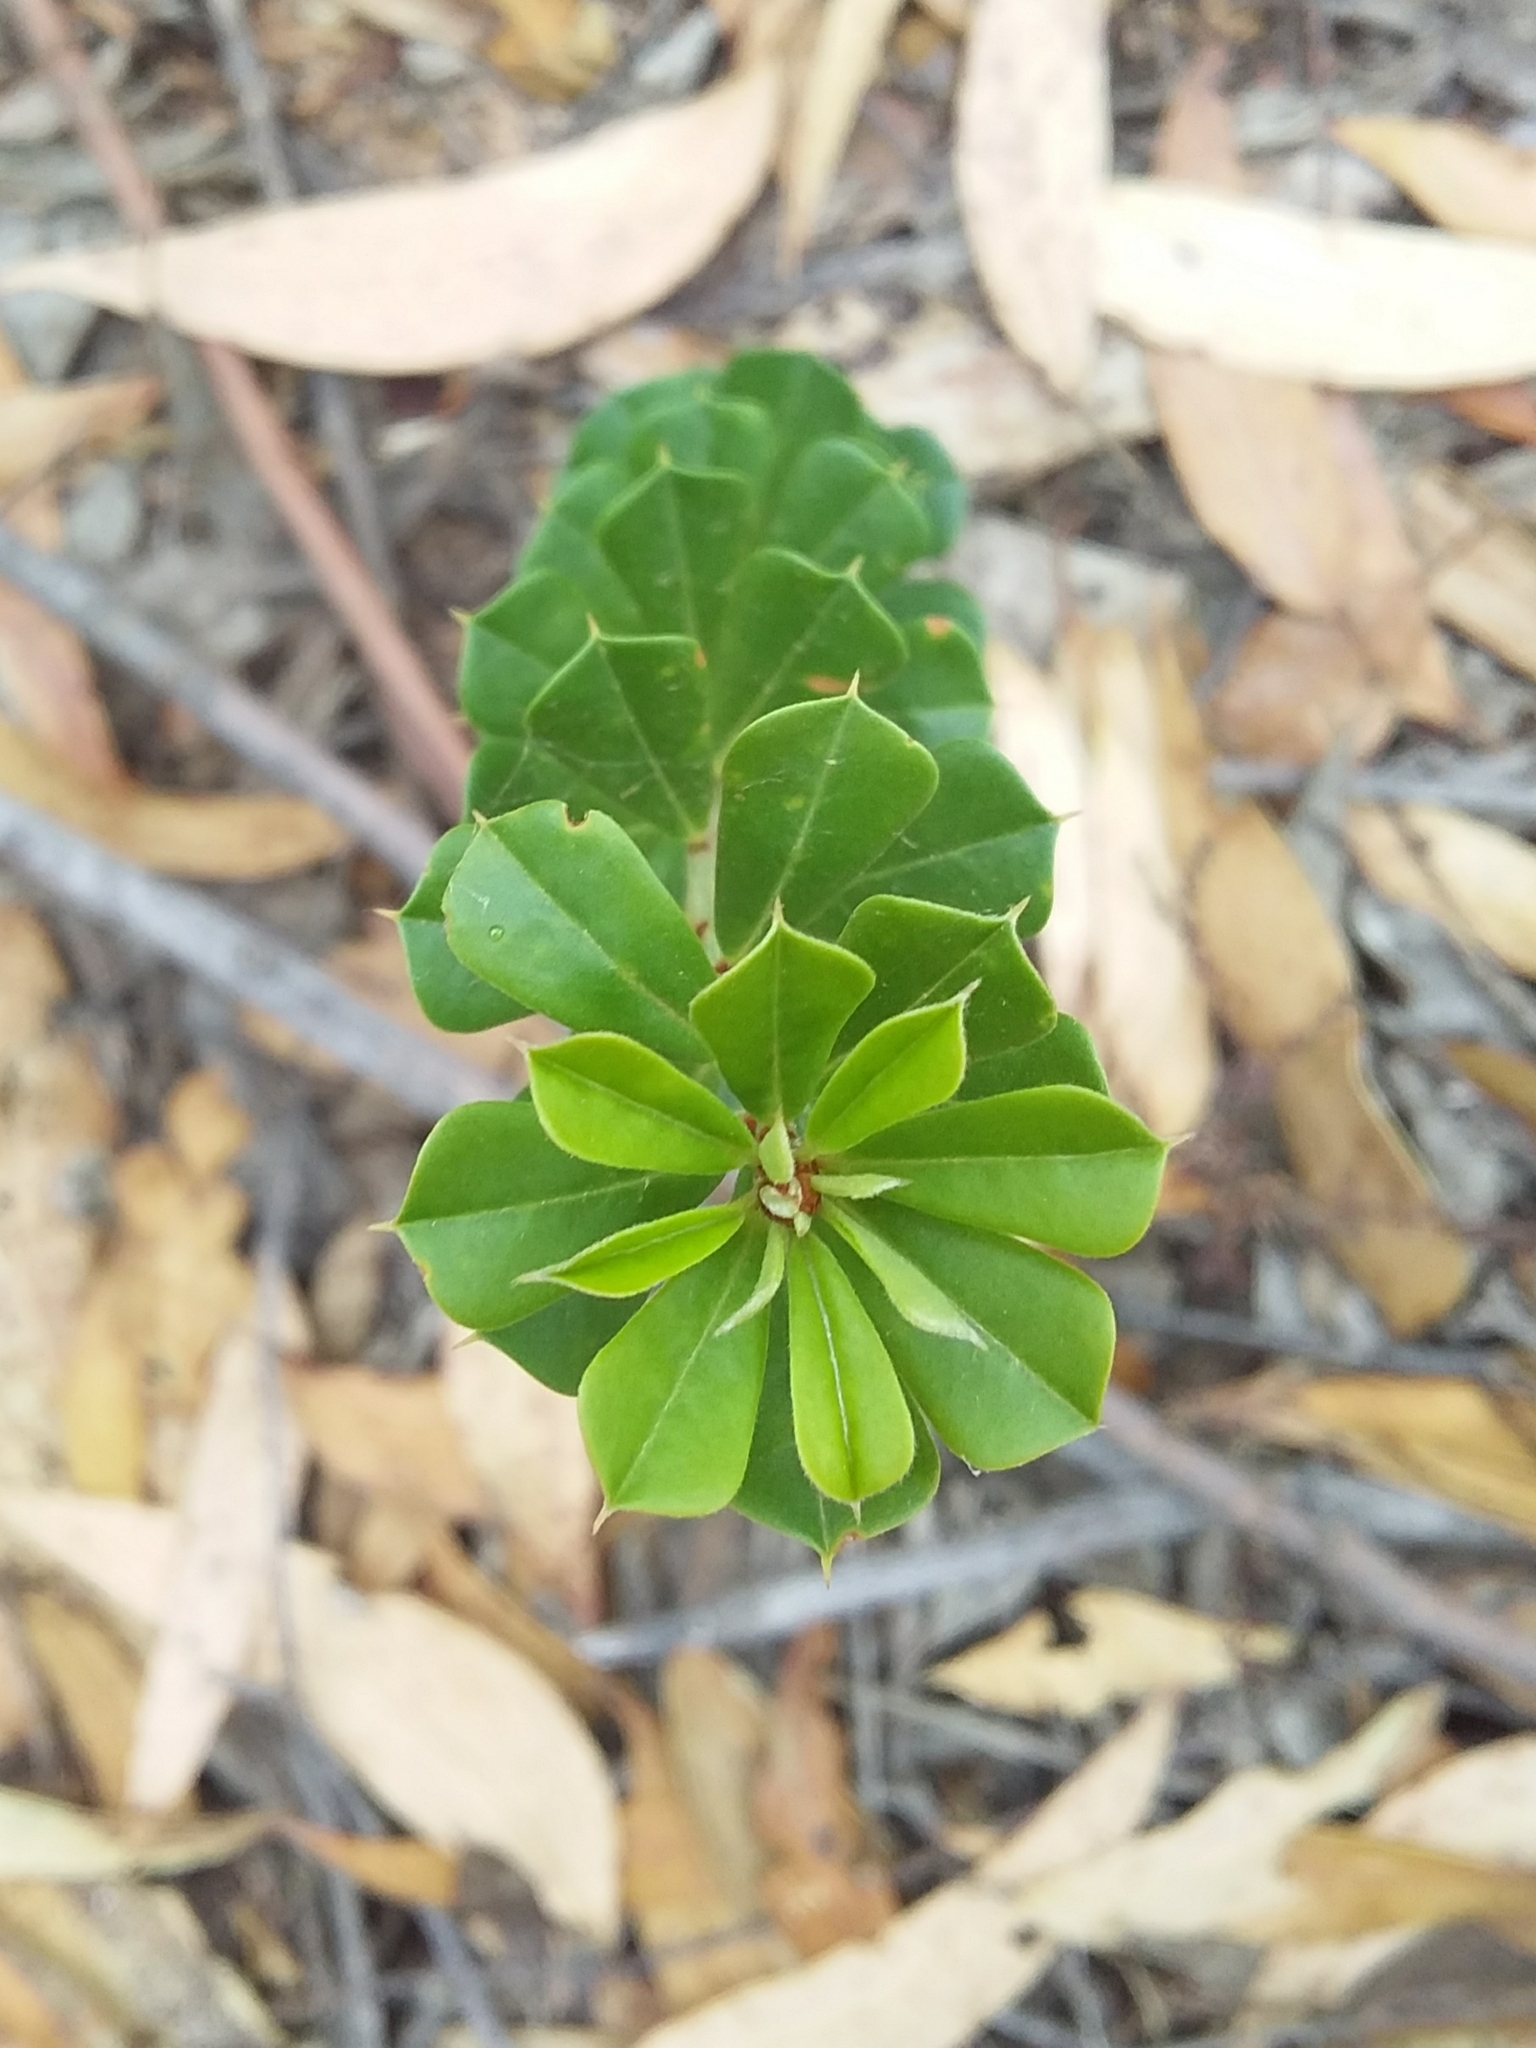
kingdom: Plantae
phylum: Tracheophyta
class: Magnoliopsida
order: Fabales
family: Fabaceae
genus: Pultenaea
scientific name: Pultenaea daphnoides
